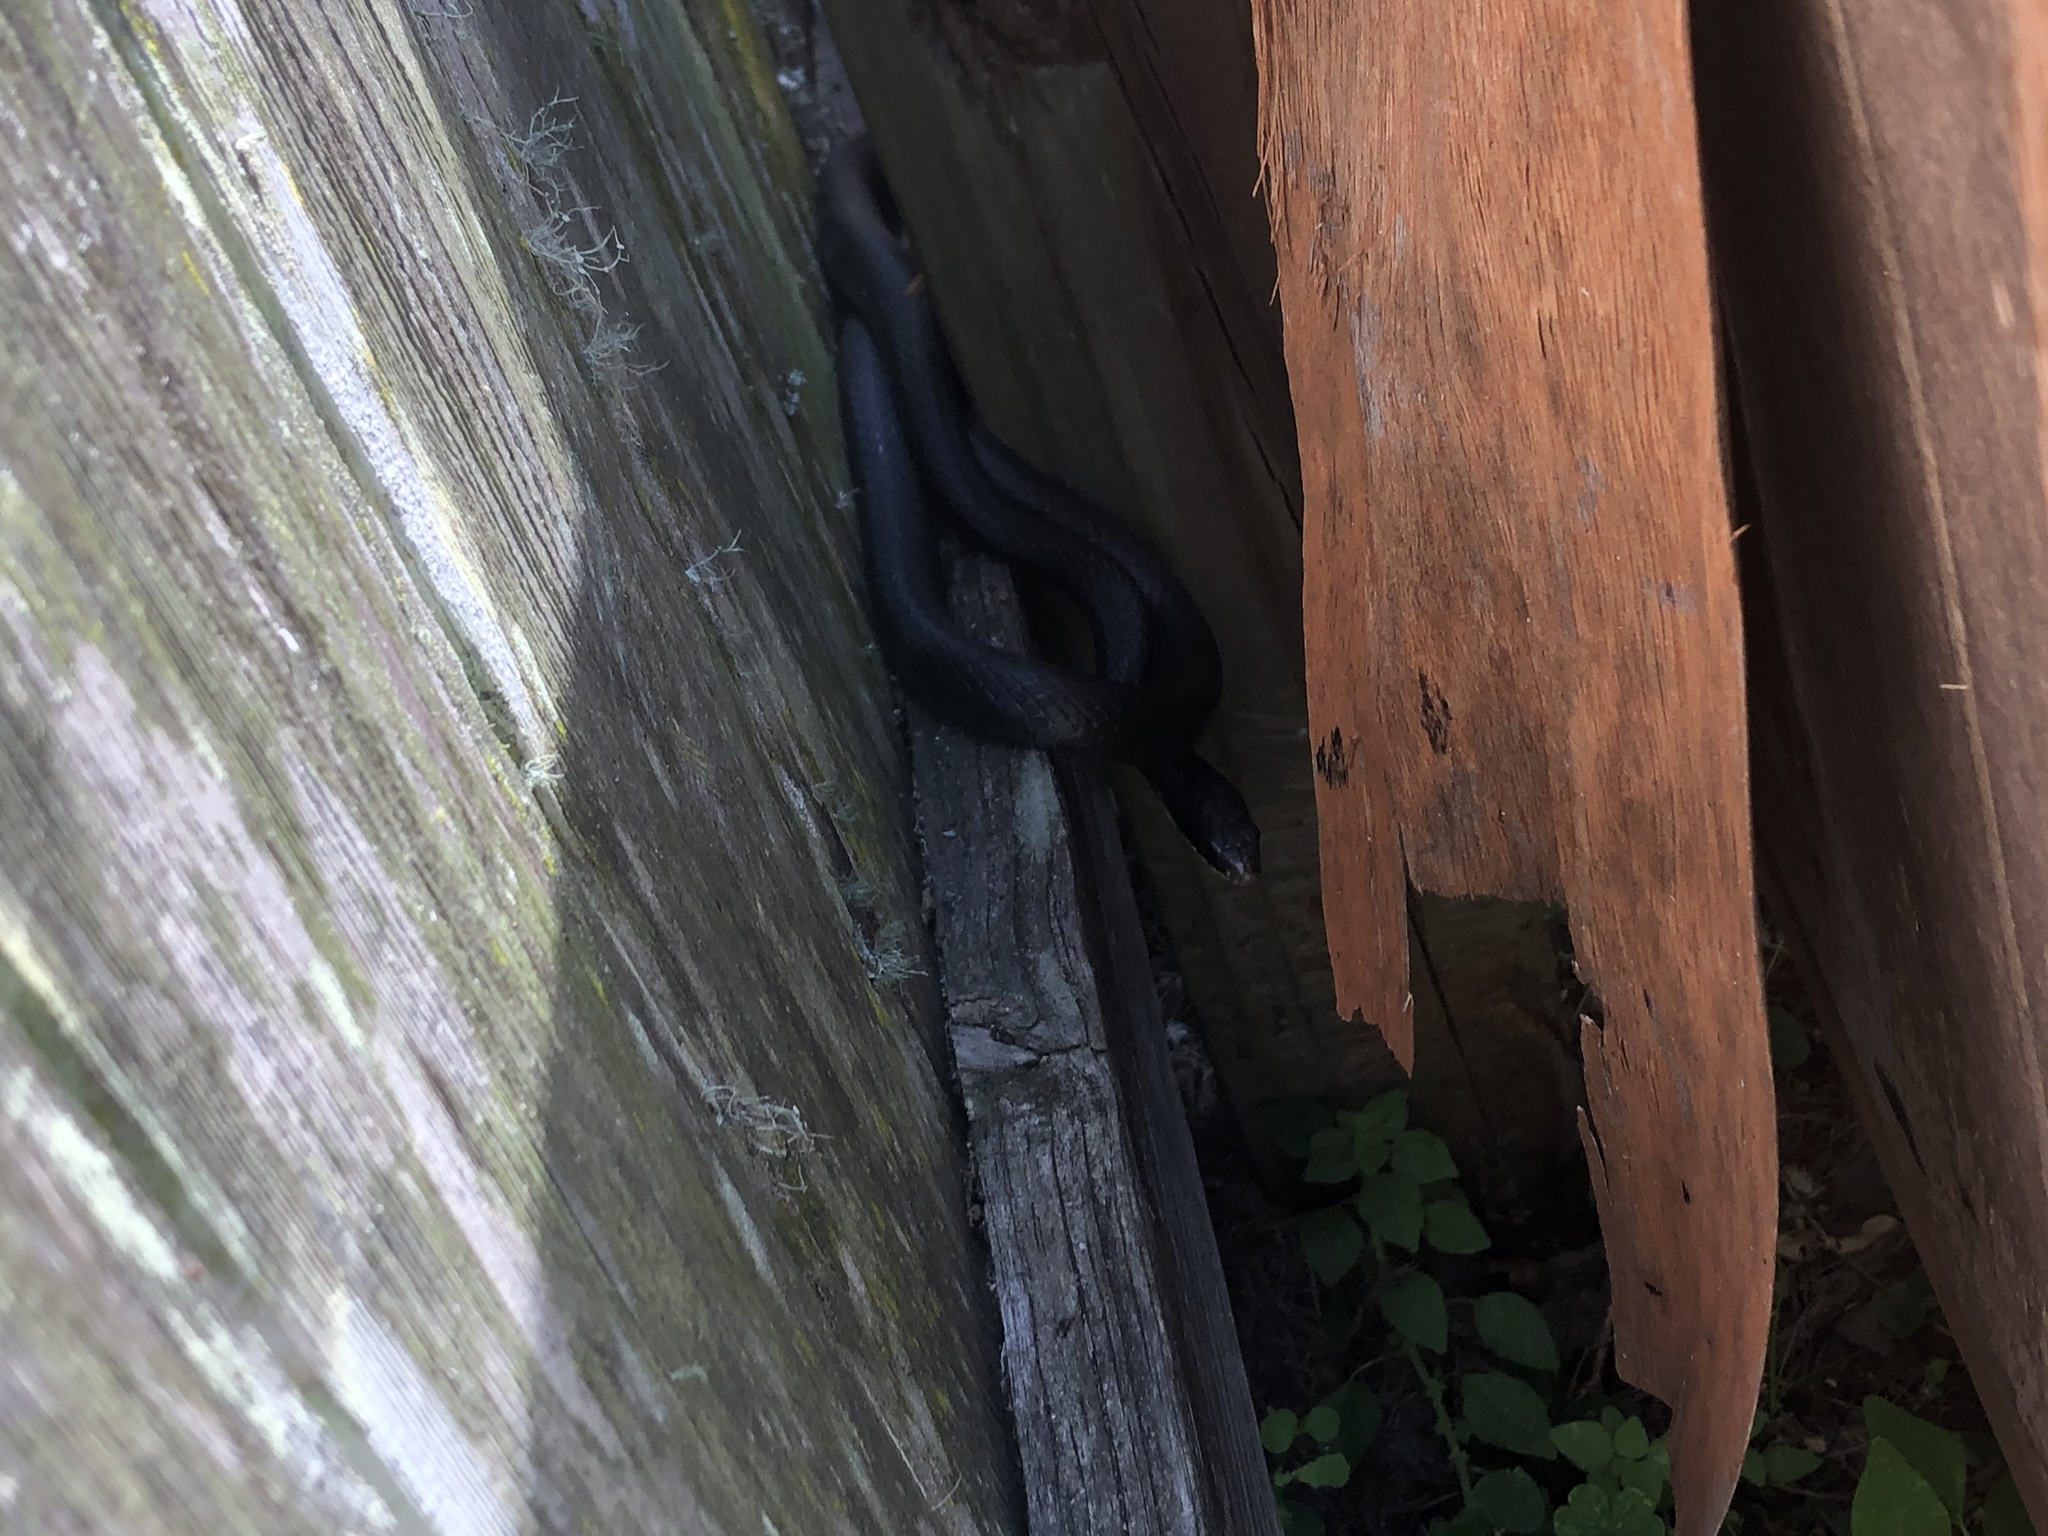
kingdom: Animalia
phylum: Chordata
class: Squamata
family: Colubridae
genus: Coluber
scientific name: Coluber constrictor
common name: Eastern racer
